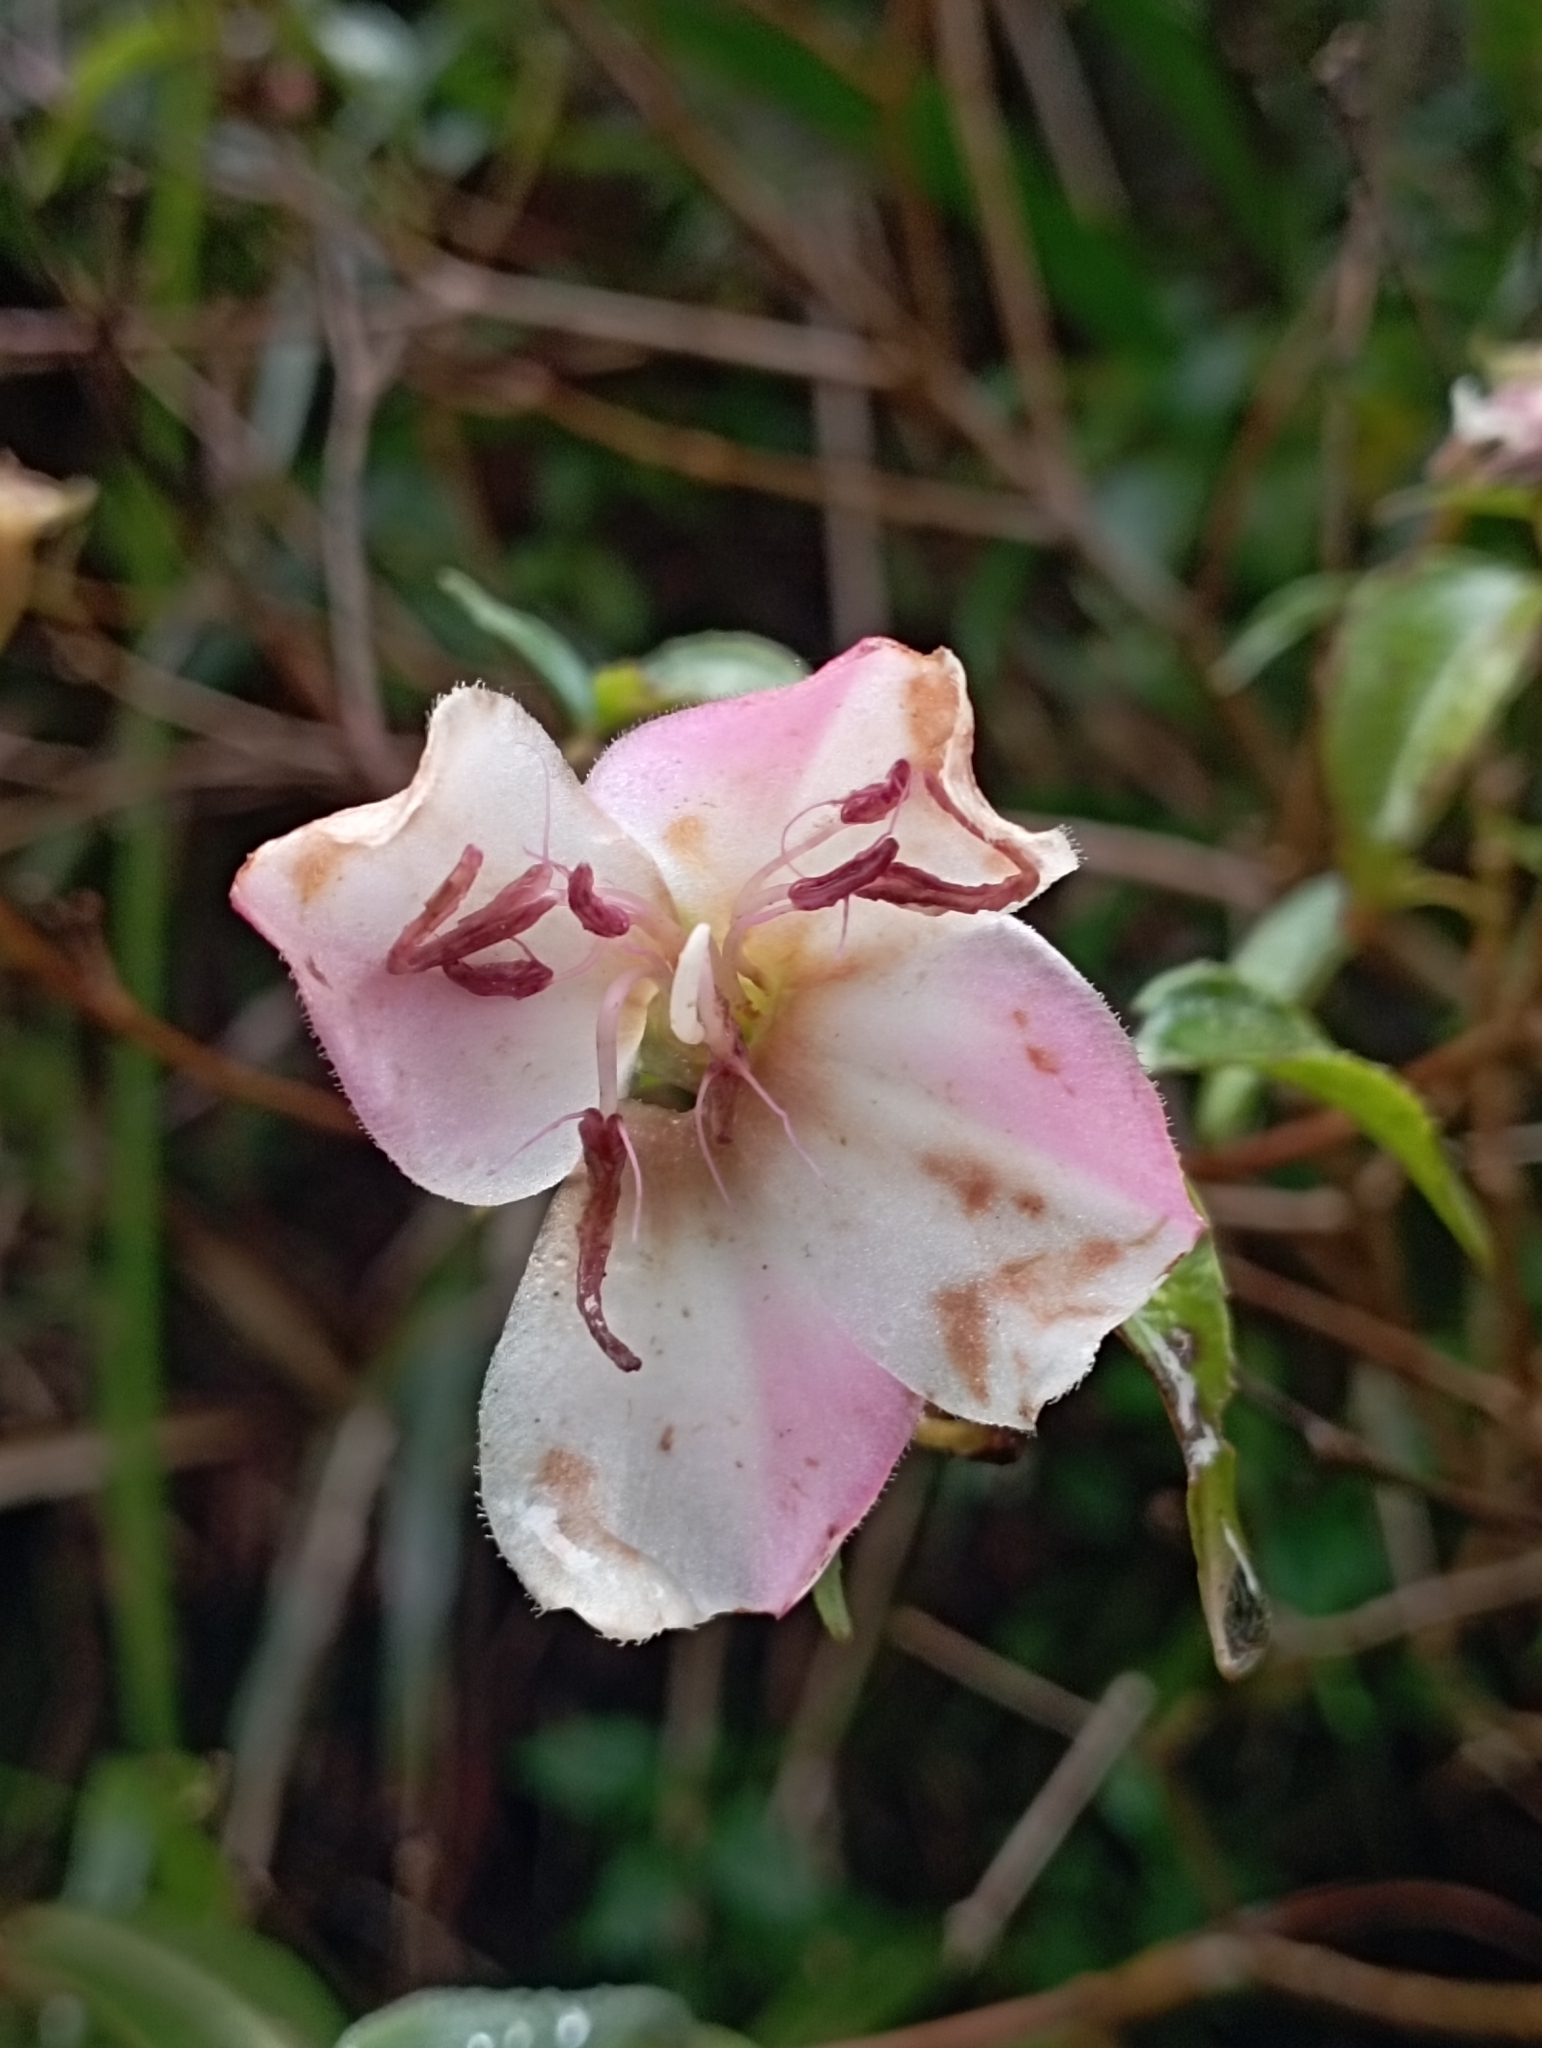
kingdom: Plantae
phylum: Tracheophyta
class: Magnoliopsida
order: Myrtales
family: Melastomataceae
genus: Barthea
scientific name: Barthea barthei
